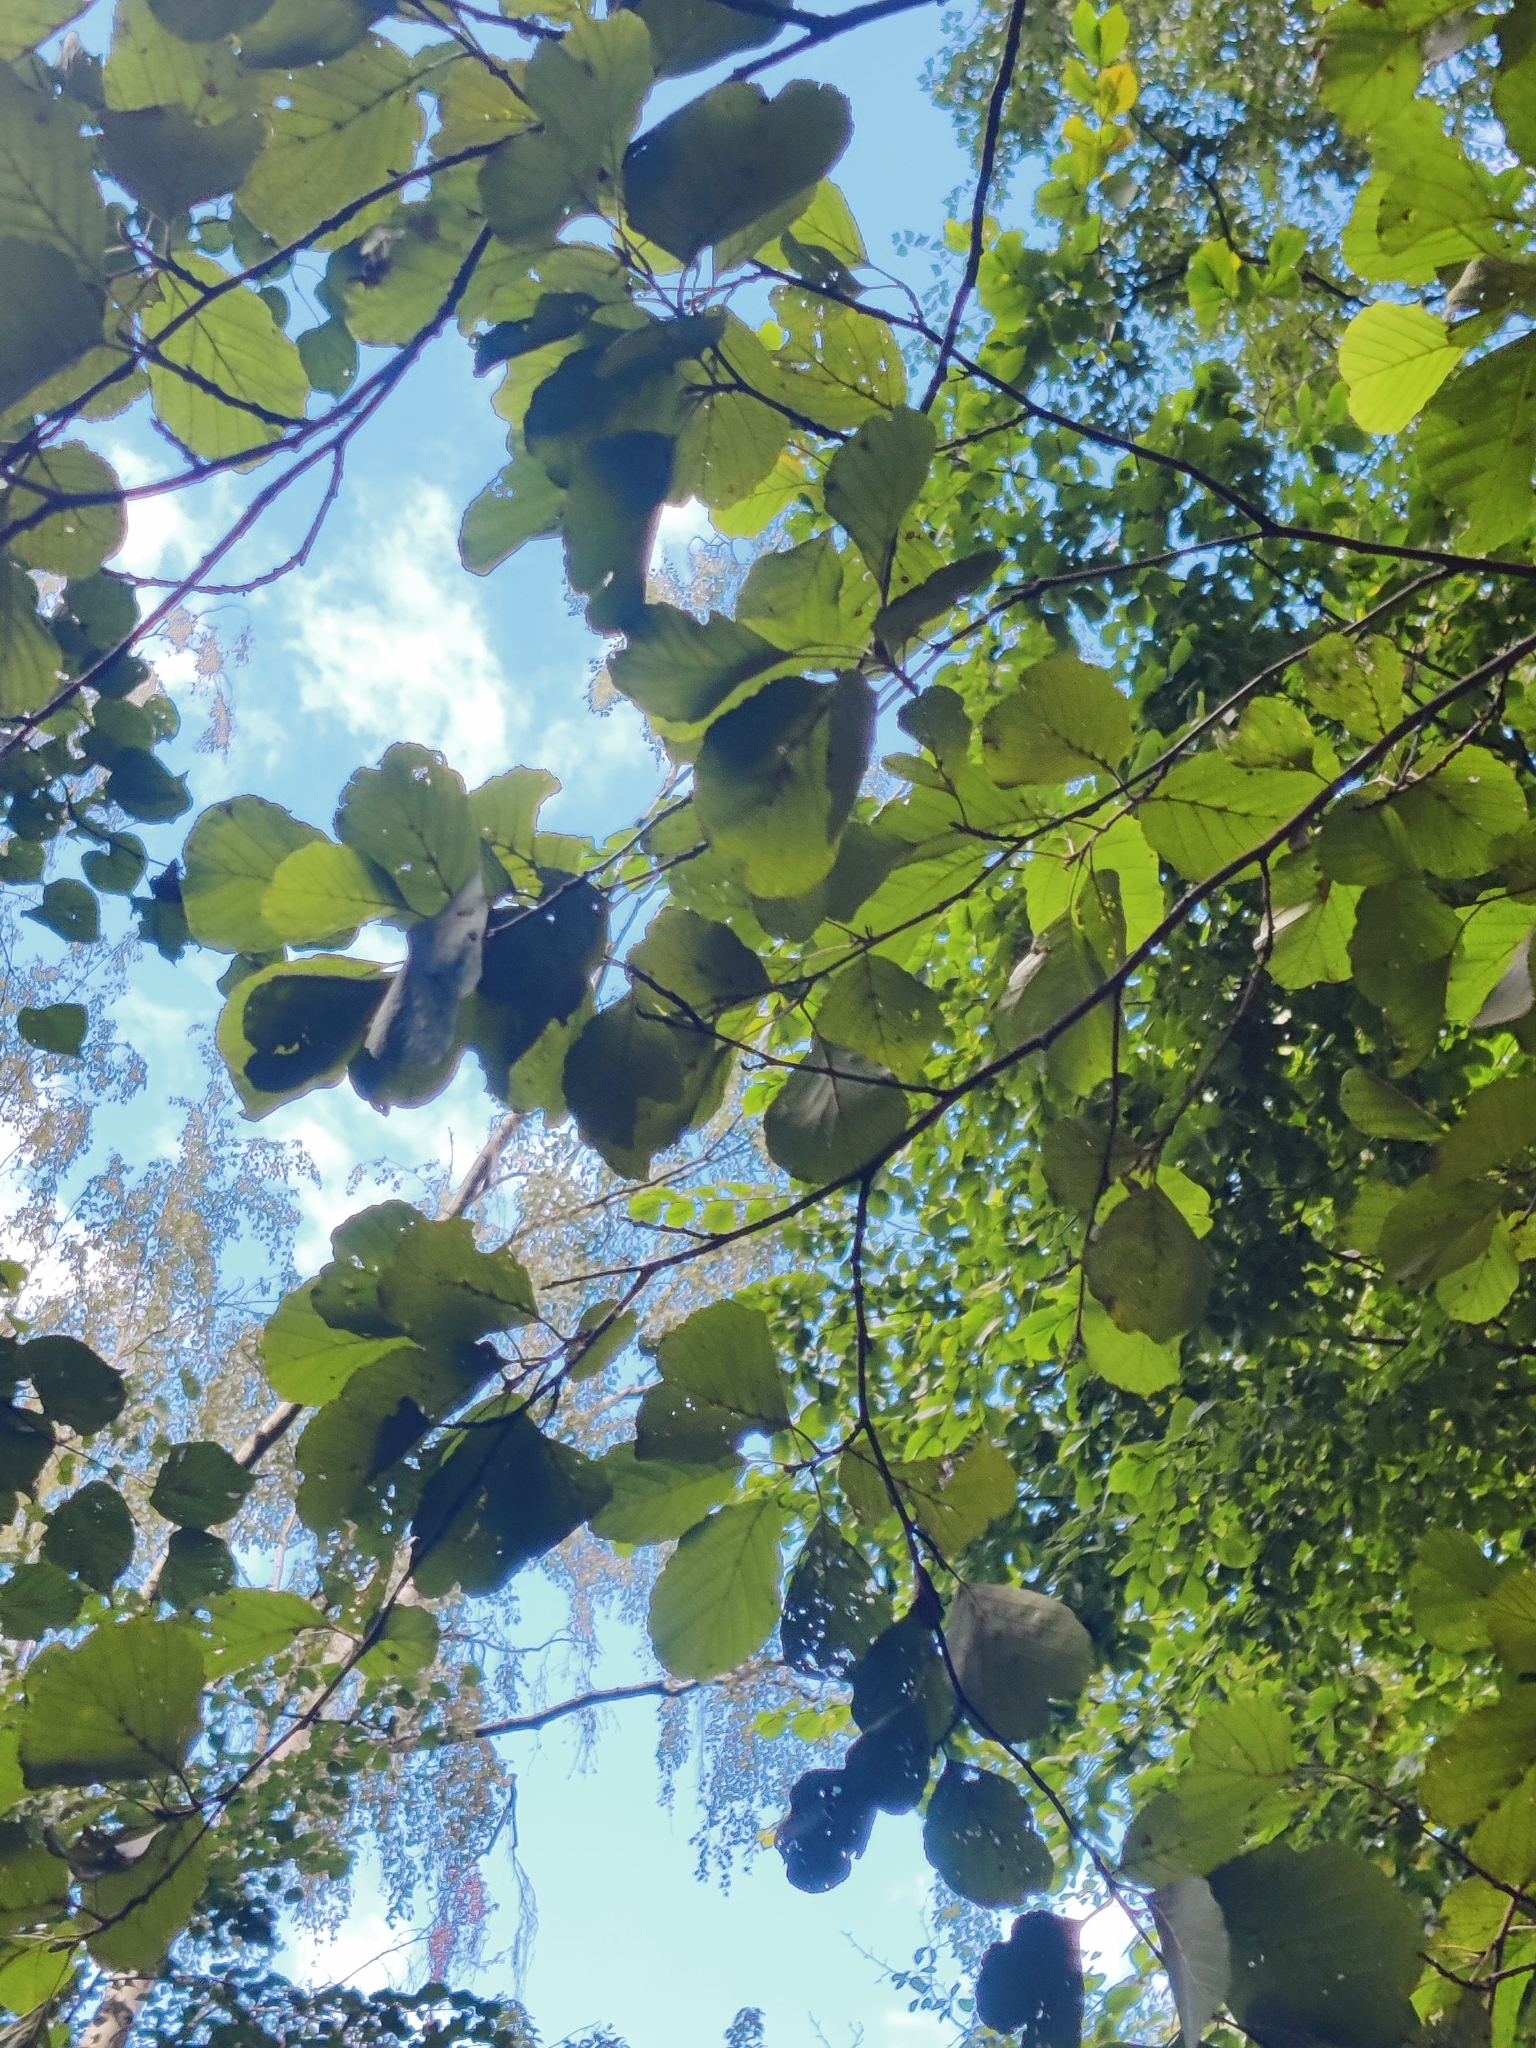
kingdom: Plantae
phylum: Tracheophyta
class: Magnoliopsida
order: Fagales
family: Betulaceae
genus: Alnus
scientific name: Alnus glutinosa
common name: Black alder
